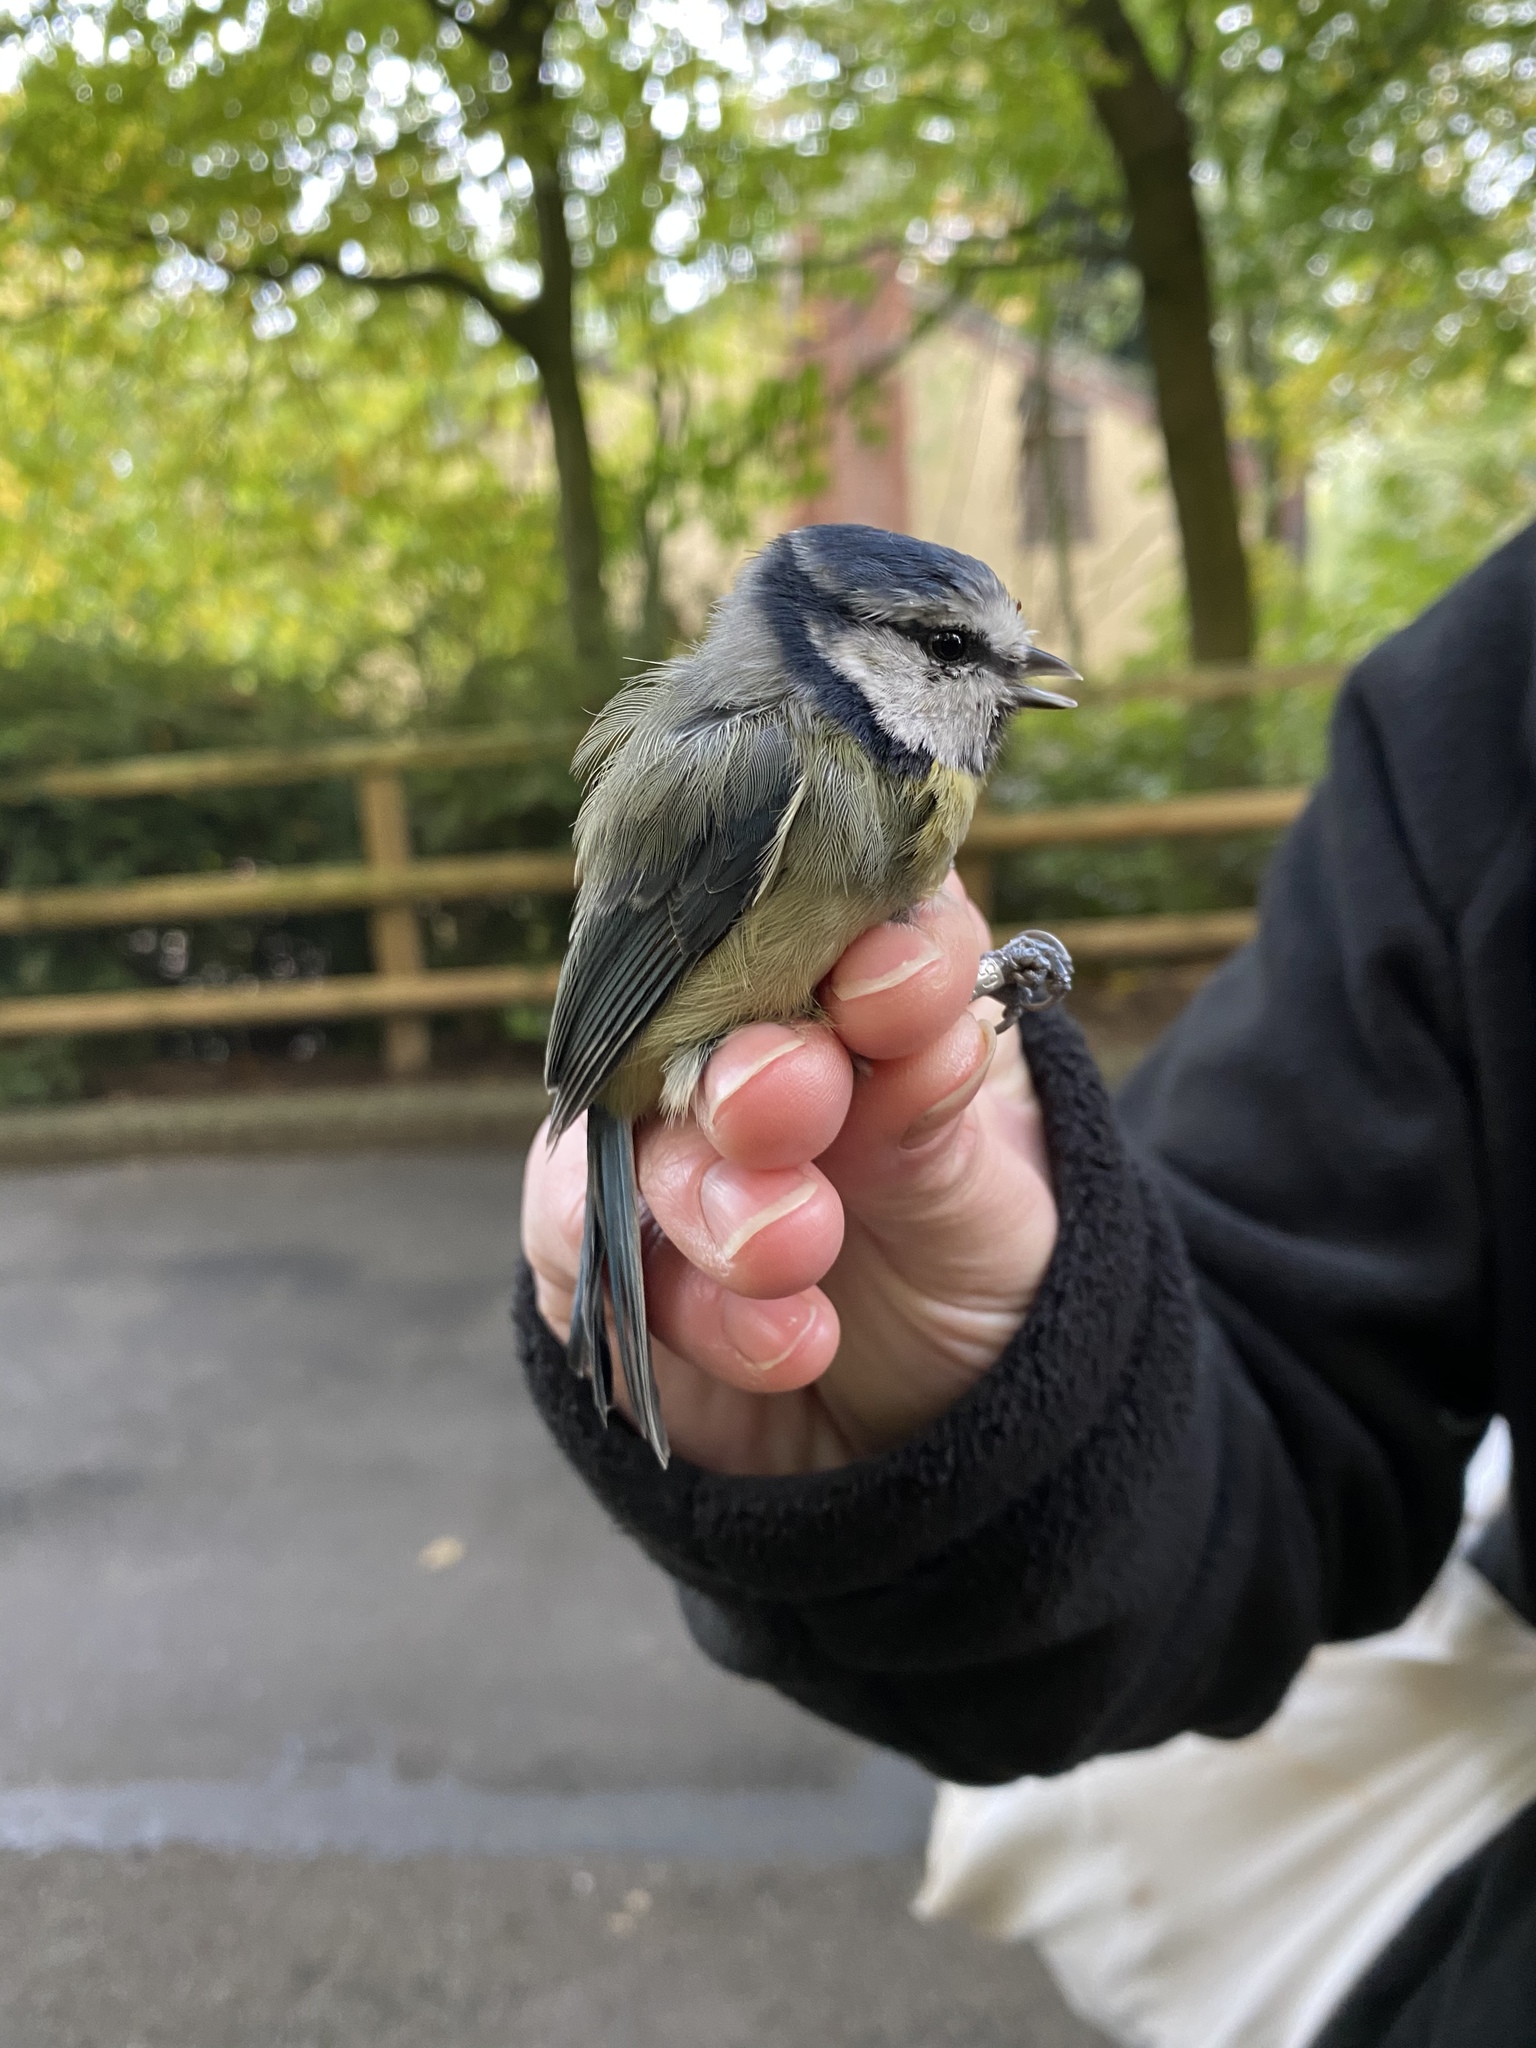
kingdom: Animalia
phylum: Chordata
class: Aves
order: Passeriformes
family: Paridae
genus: Cyanistes
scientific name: Cyanistes caeruleus
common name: Eurasian blue tit
